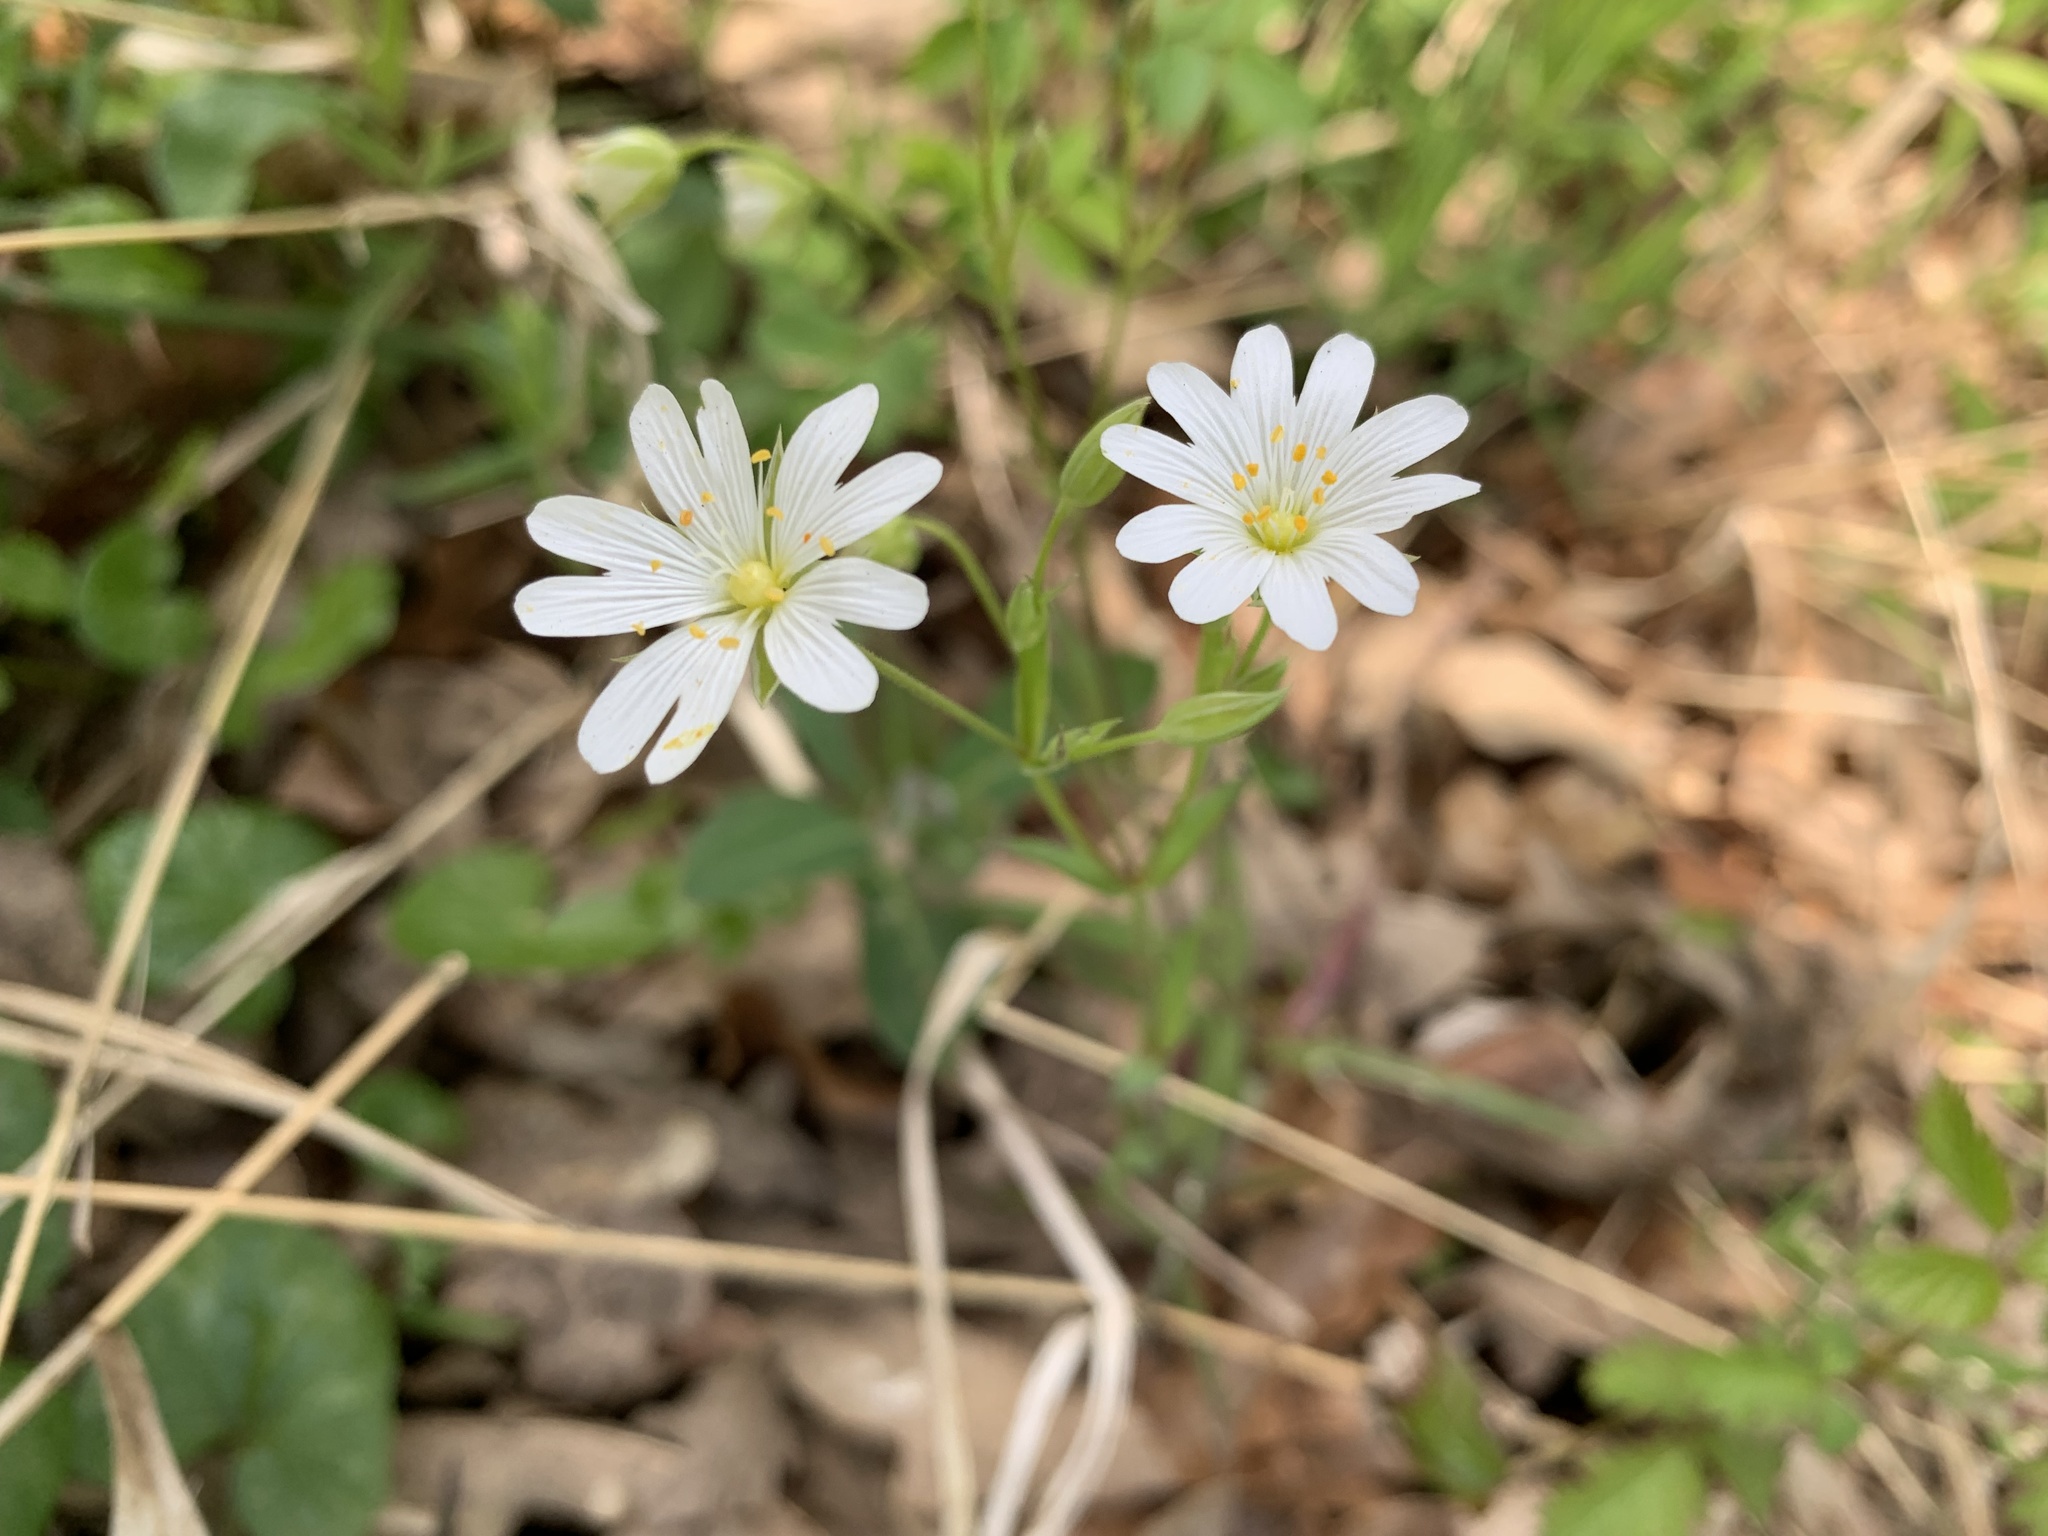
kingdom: Plantae
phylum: Tracheophyta
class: Magnoliopsida
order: Caryophyllales
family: Caryophyllaceae
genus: Rabelera
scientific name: Rabelera holostea
